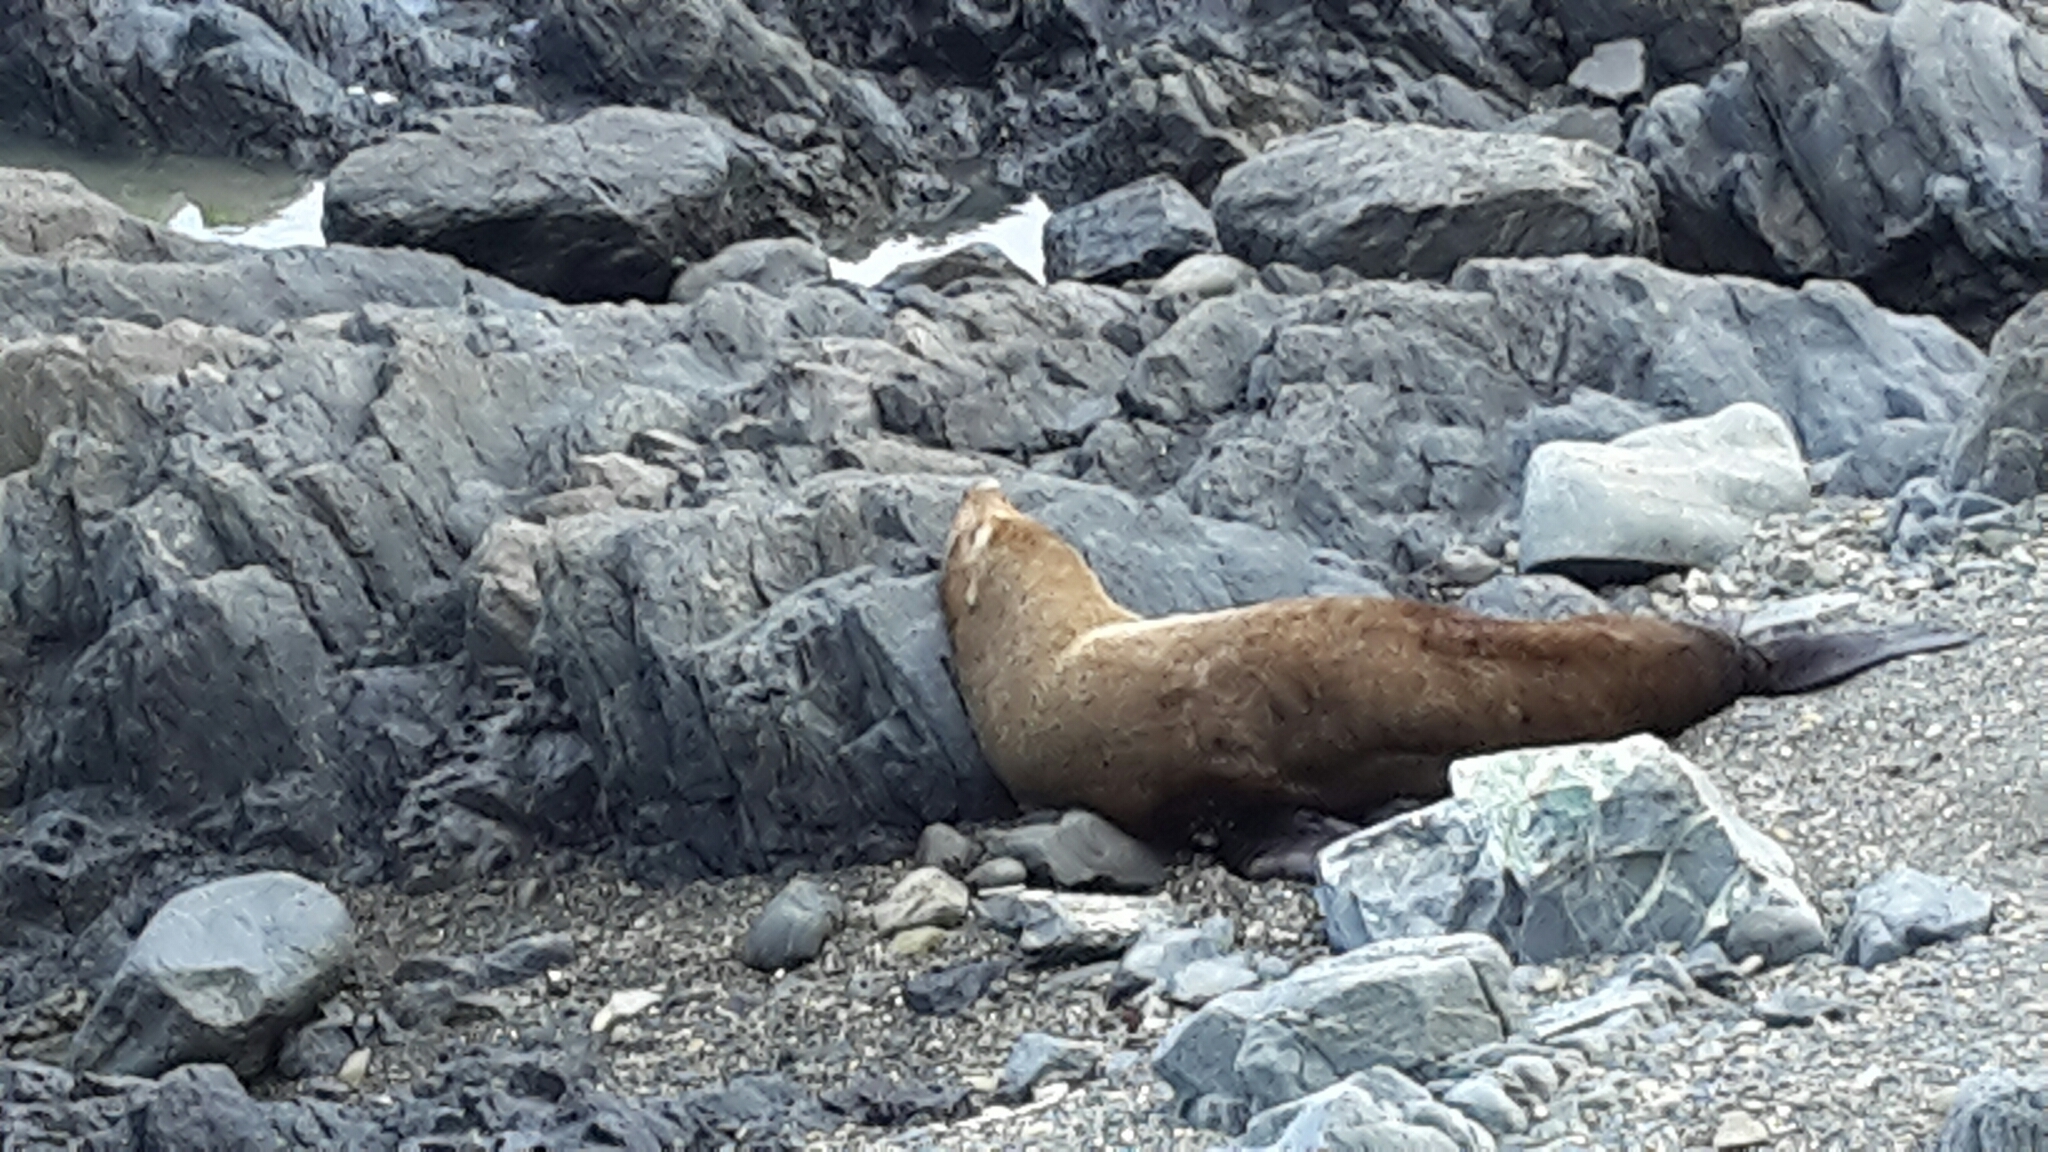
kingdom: Animalia
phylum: Chordata
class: Mammalia
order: Carnivora
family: Otariidae
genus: Arctocephalus
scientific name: Arctocephalus forsteri
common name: New zealand fur seal
